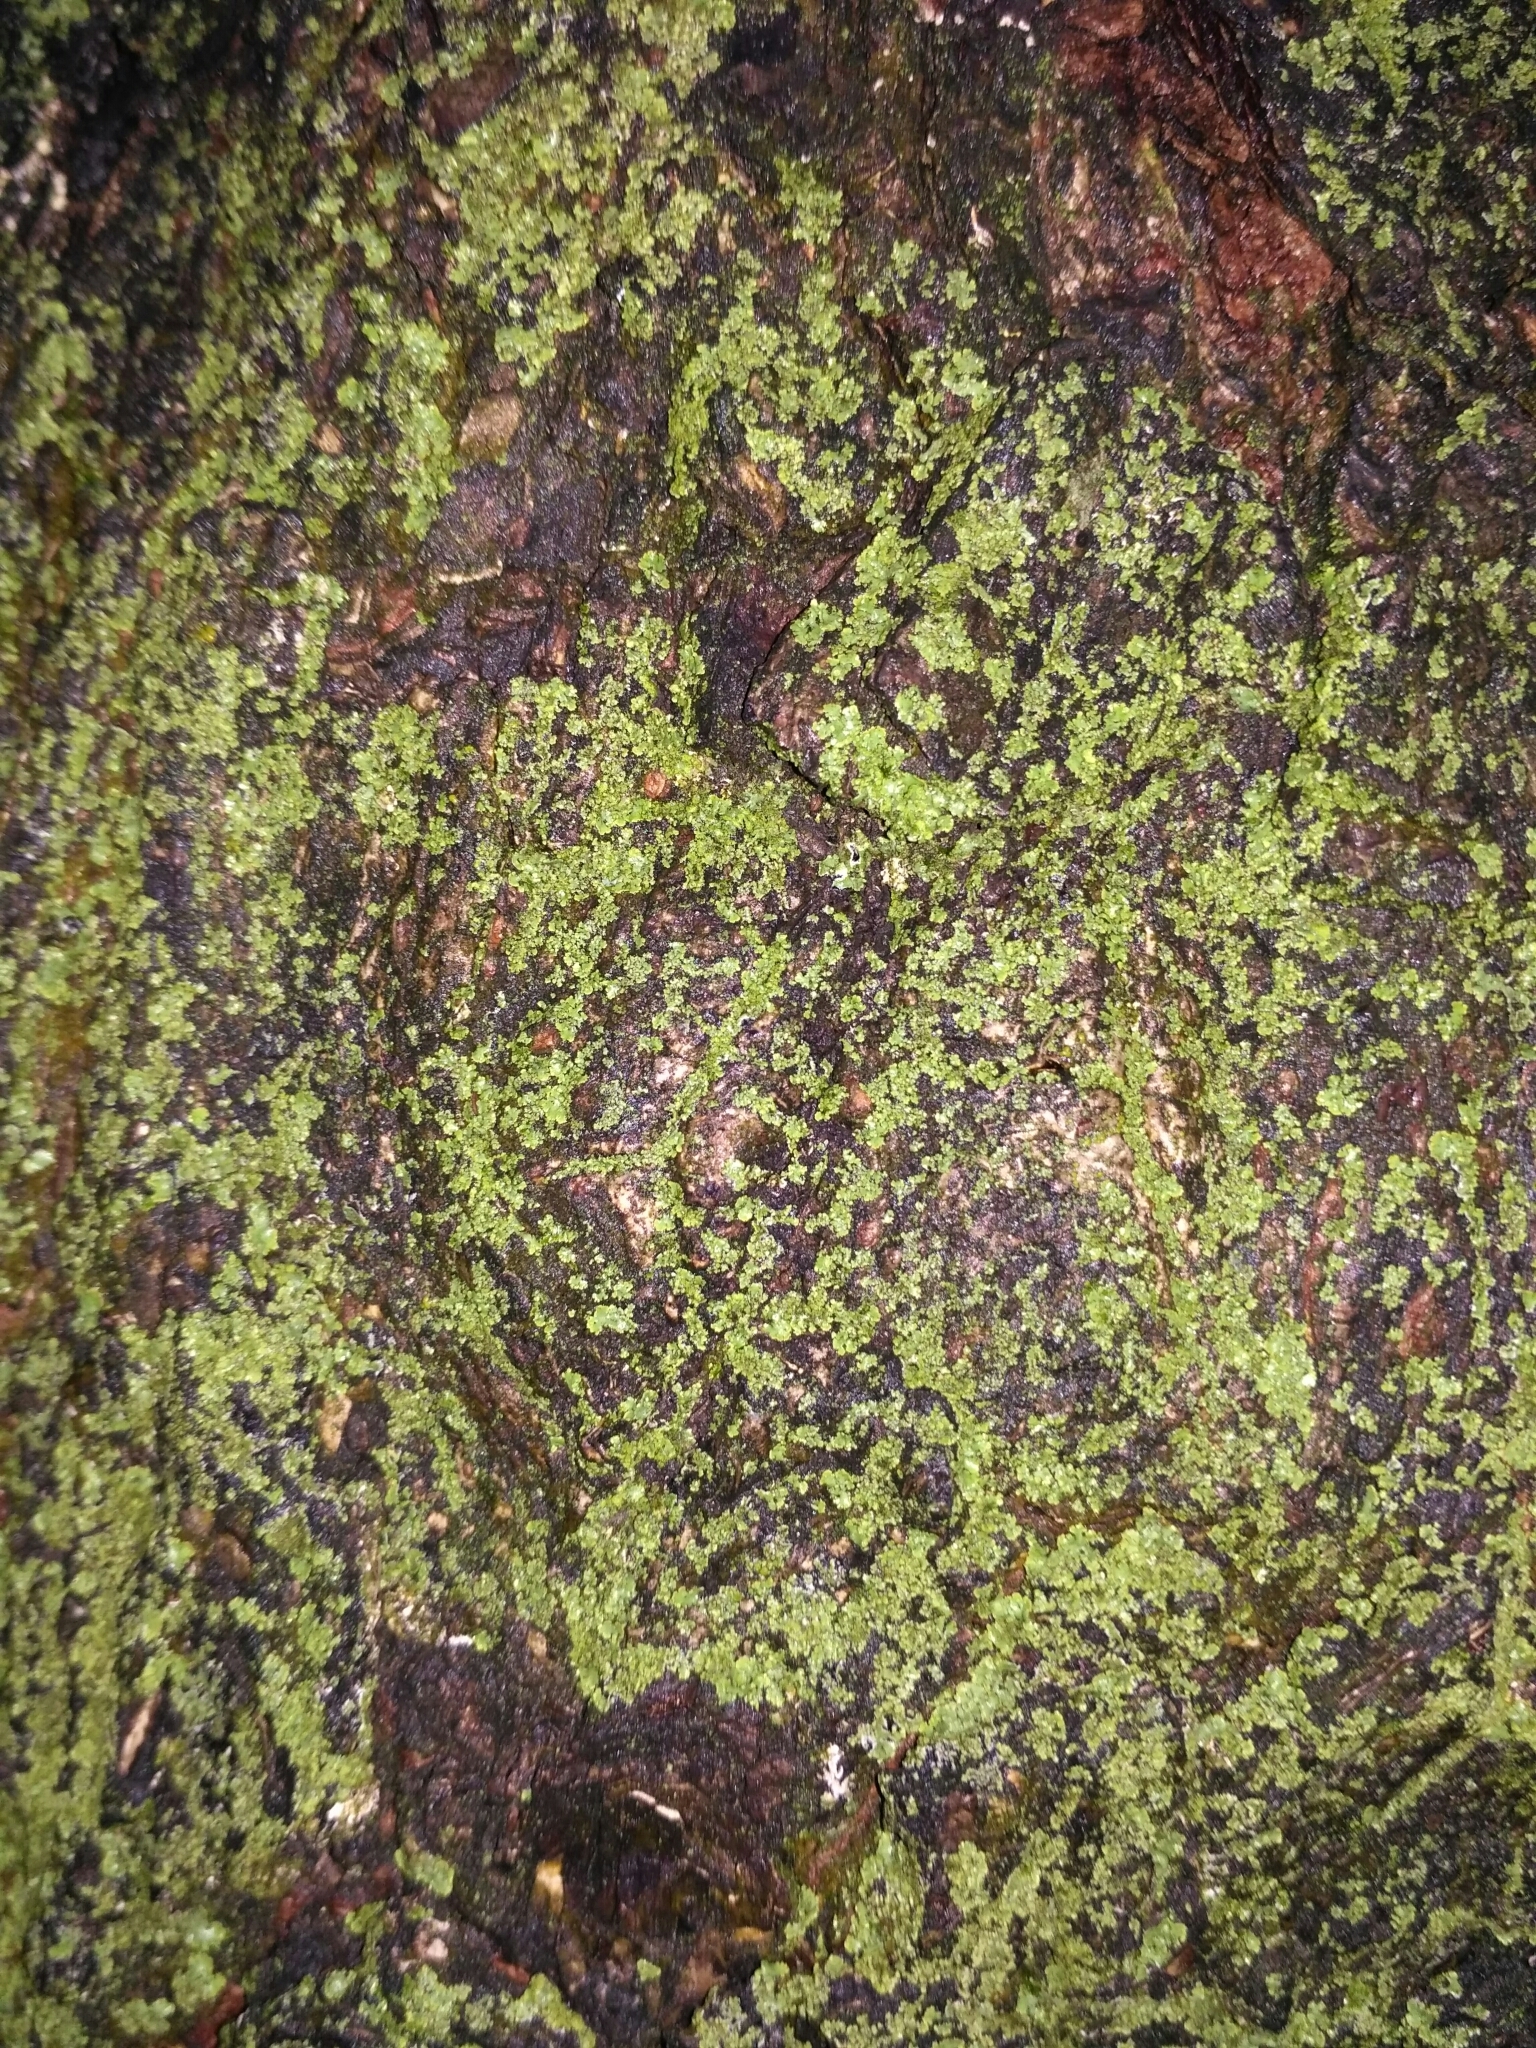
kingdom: Fungi
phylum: Ascomycota
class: Lecanoromycetes
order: Caliciales
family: Physciaceae
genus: Phaeophyscia
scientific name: Phaeophyscia orbicularis
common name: Mealy shadow lichen
